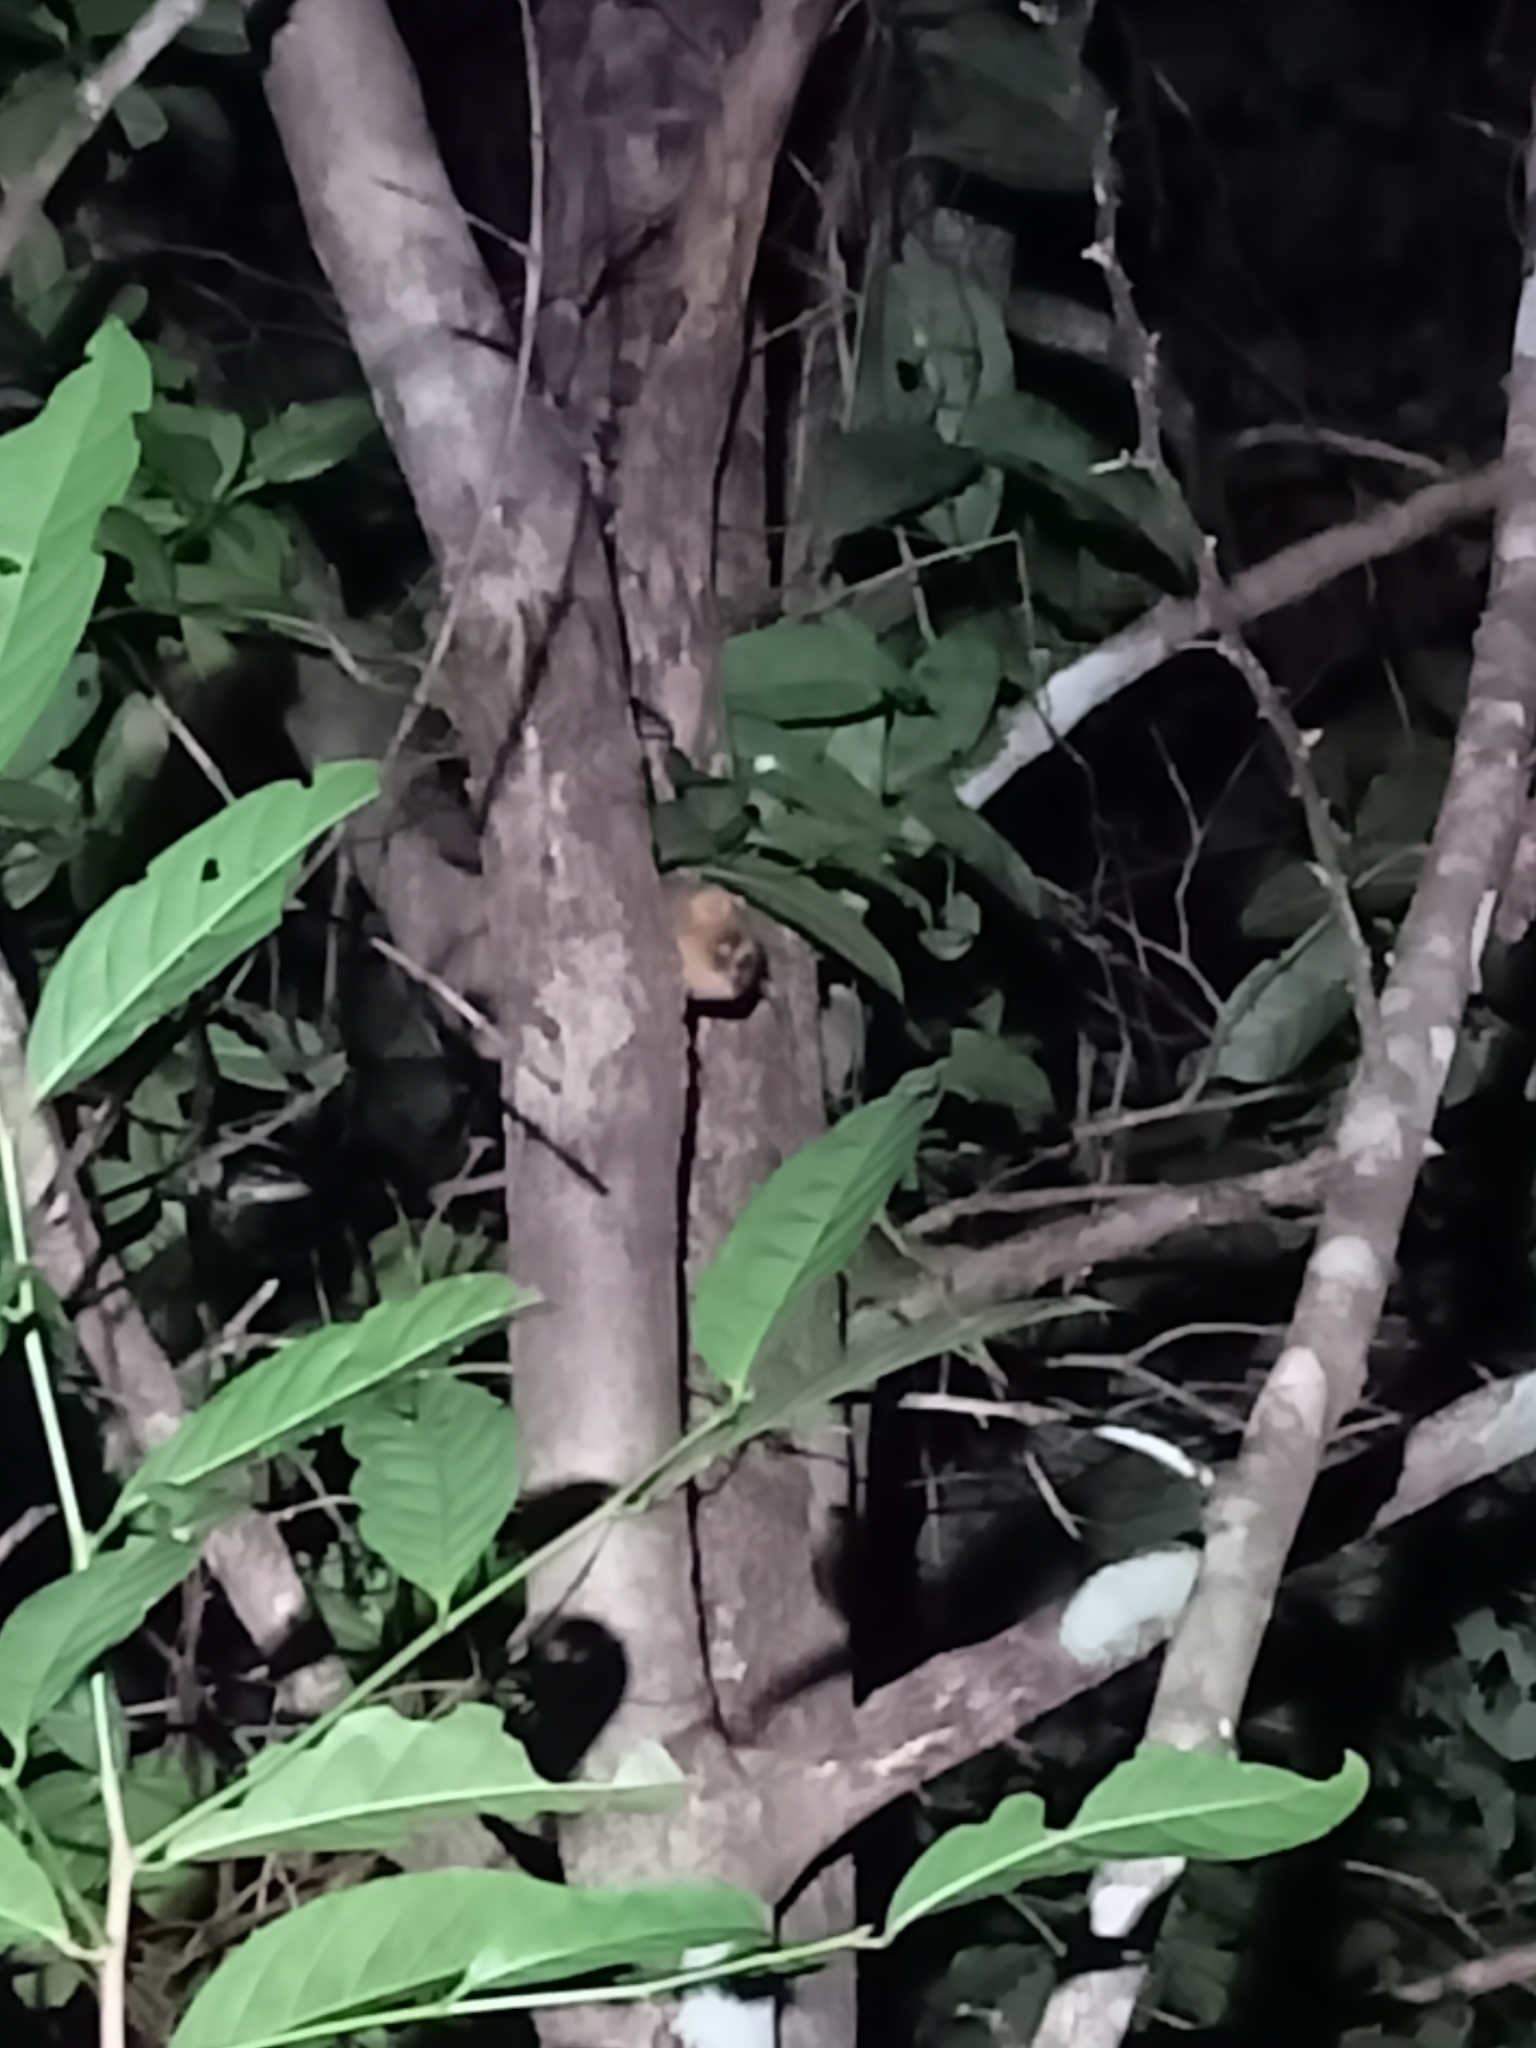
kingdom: Animalia
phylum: Chordata
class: Mammalia
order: Primates
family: Lorisidae
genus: Loris
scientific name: Loris lydekkerianus
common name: Gray slender loris
